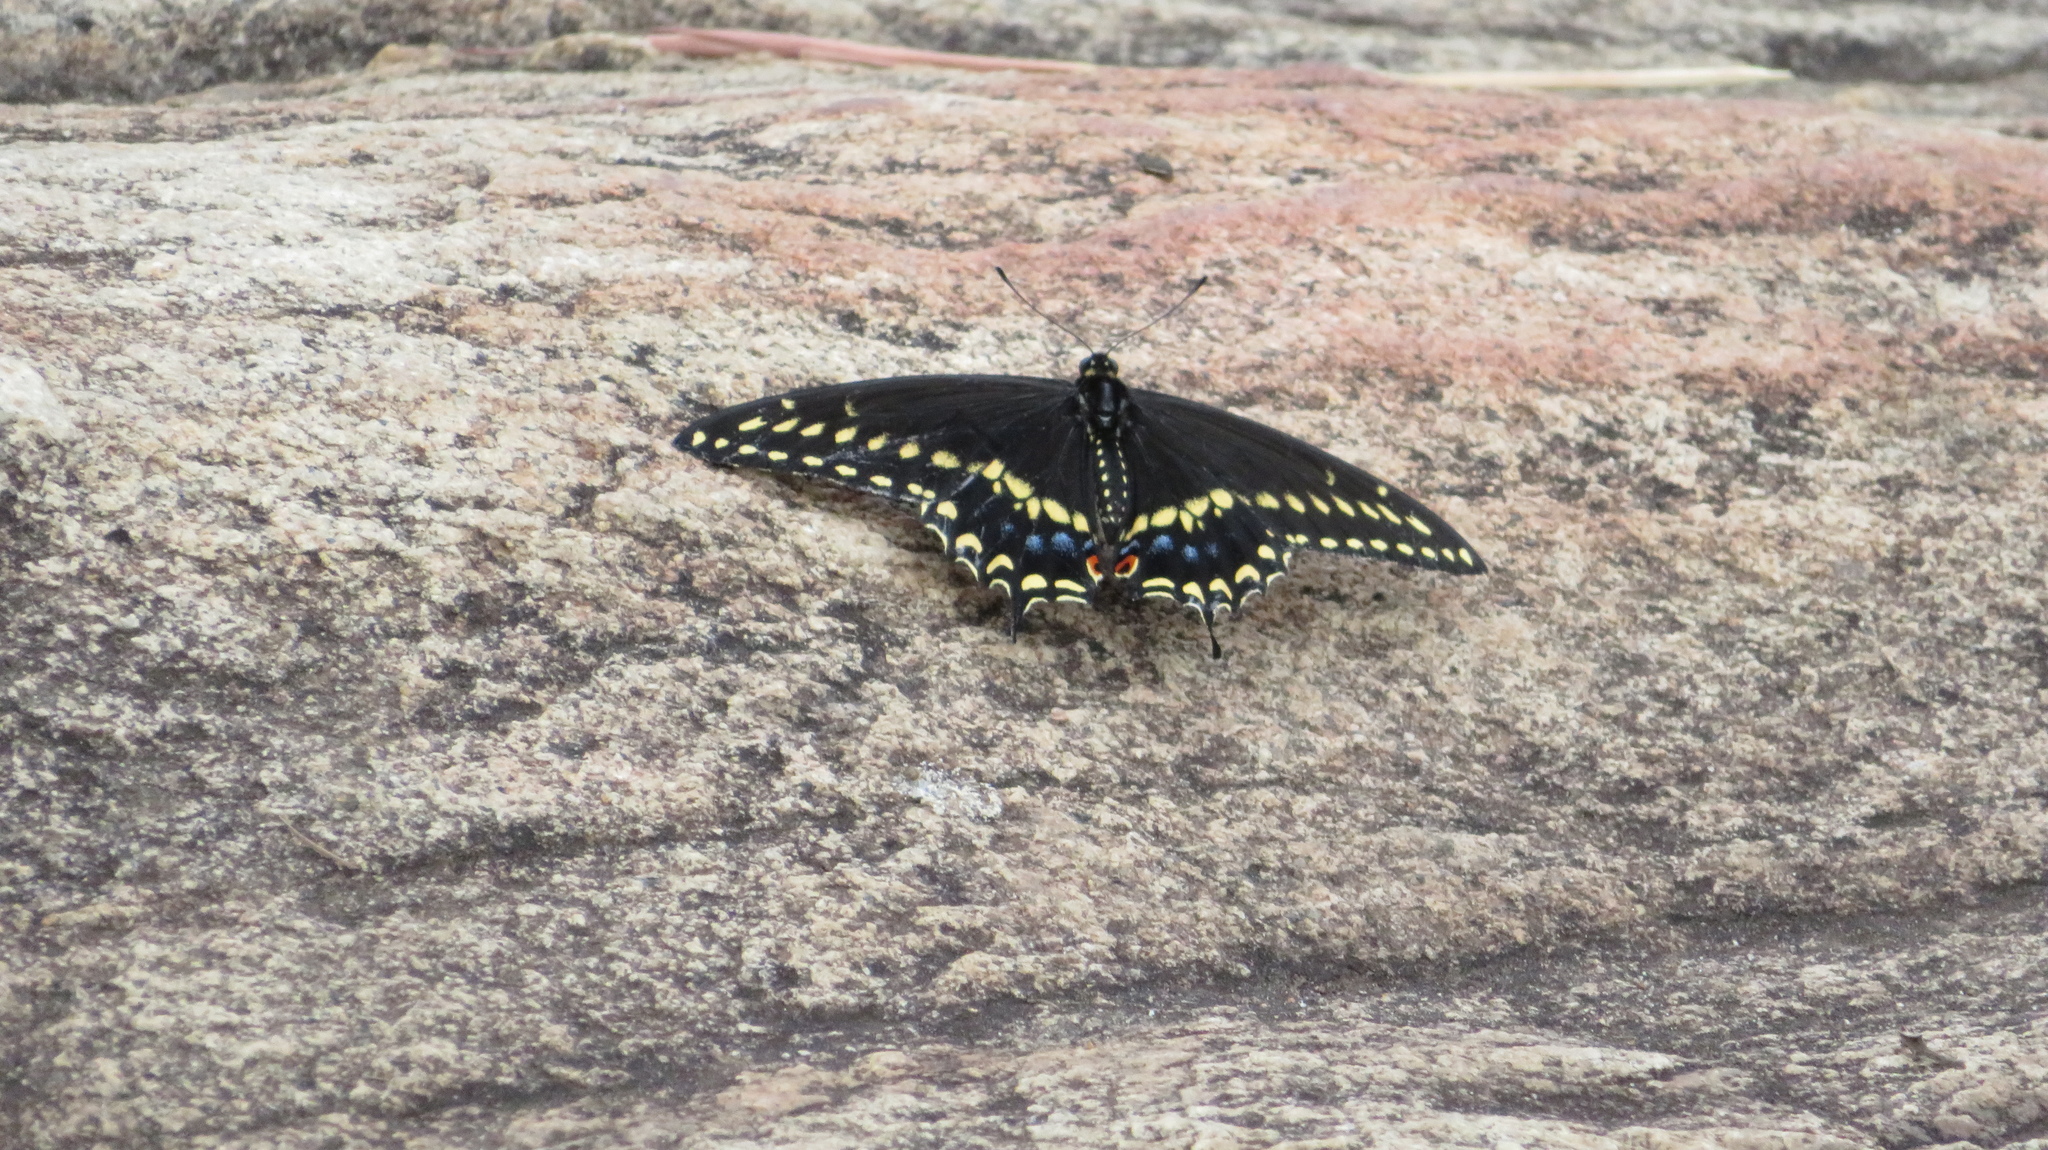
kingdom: Animalia
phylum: Arthropoda
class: Insecta
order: Lepidoptera
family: Papilionidae
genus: Papilio
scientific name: Papilio polyxenes
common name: Black swallowtail
